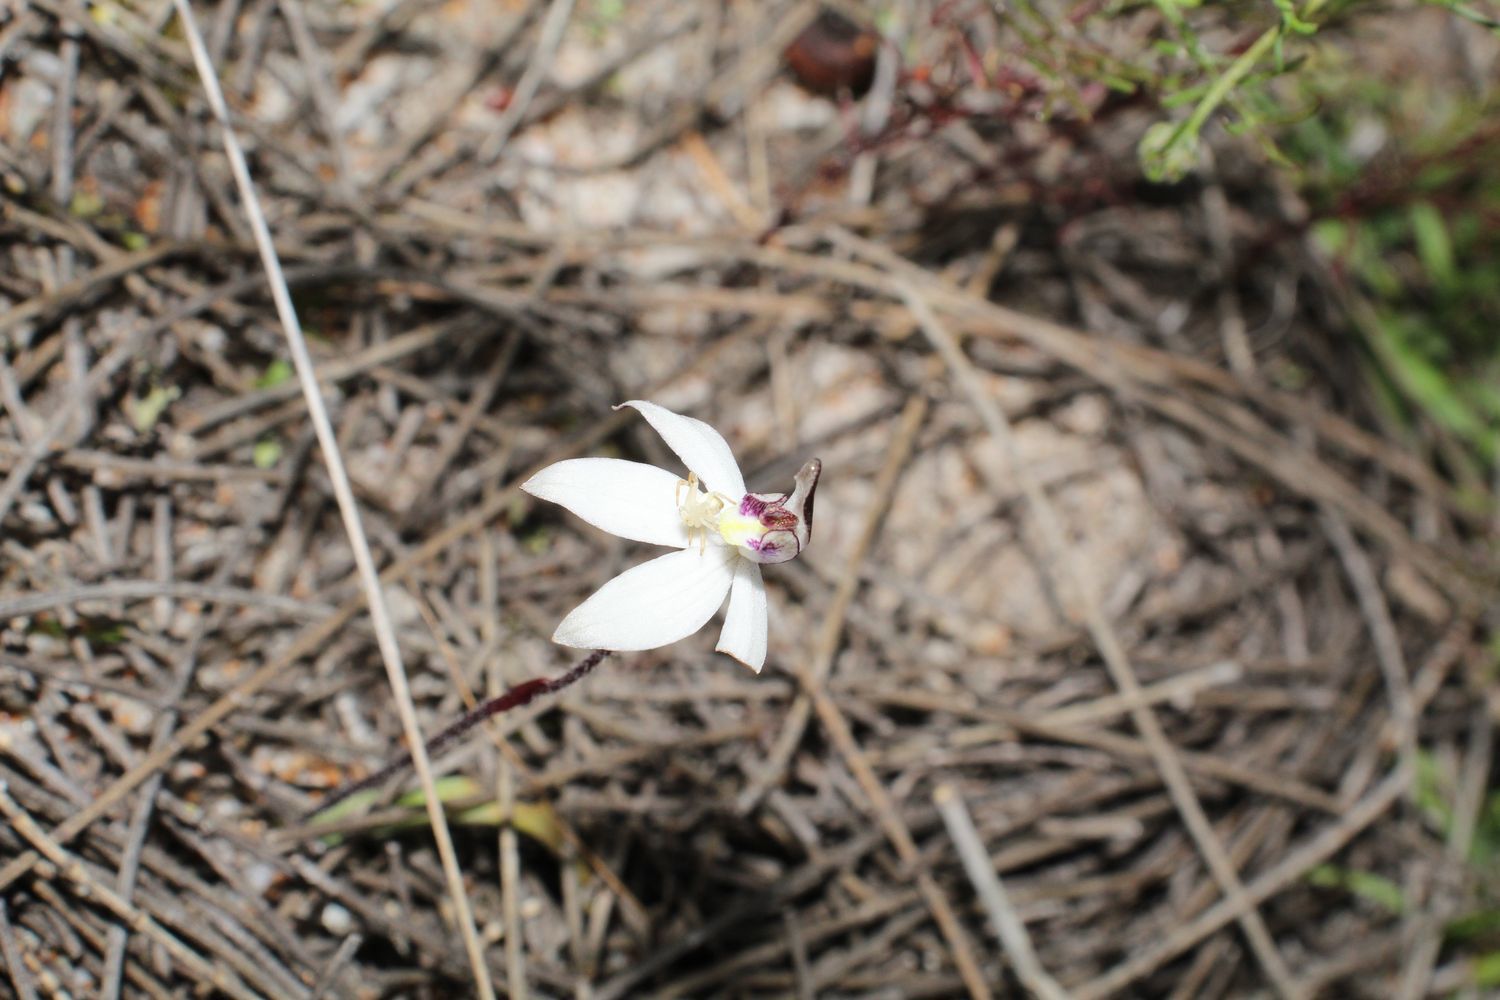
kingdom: Plantae
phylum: Tracheophyta
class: Liliopsida
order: Asparagales
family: Orchidaceae
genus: Caladenia
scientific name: Caladenia saccharata
